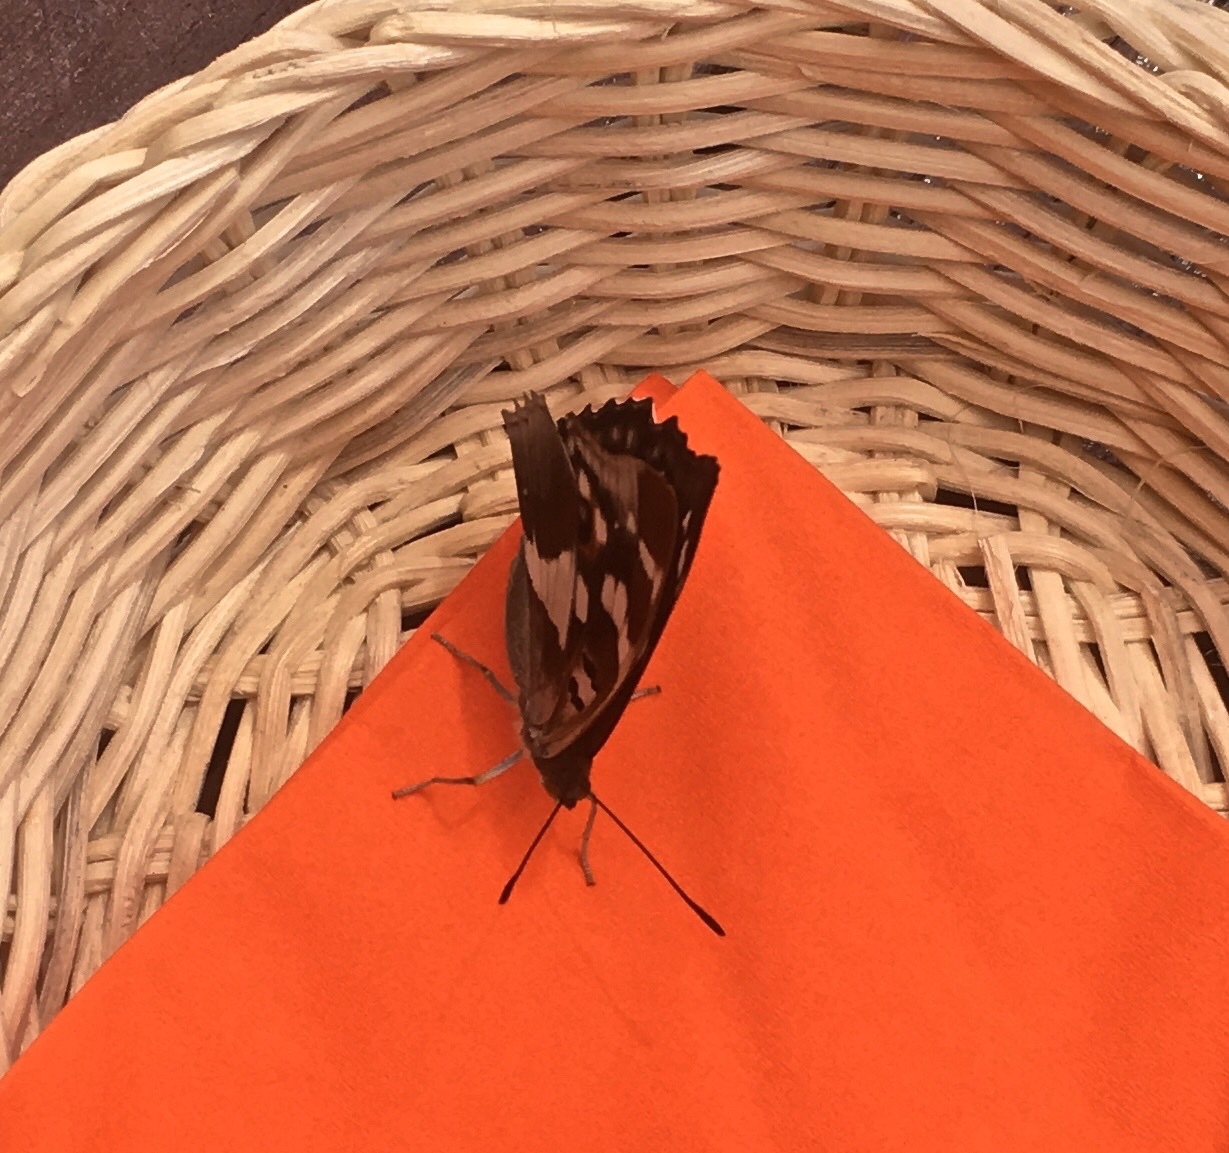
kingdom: Animalia
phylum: Arthropoda
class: Insecta
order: Lepidoptera
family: Nymphalidae
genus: Apatura
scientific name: Apatura iris
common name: Purple emperor
